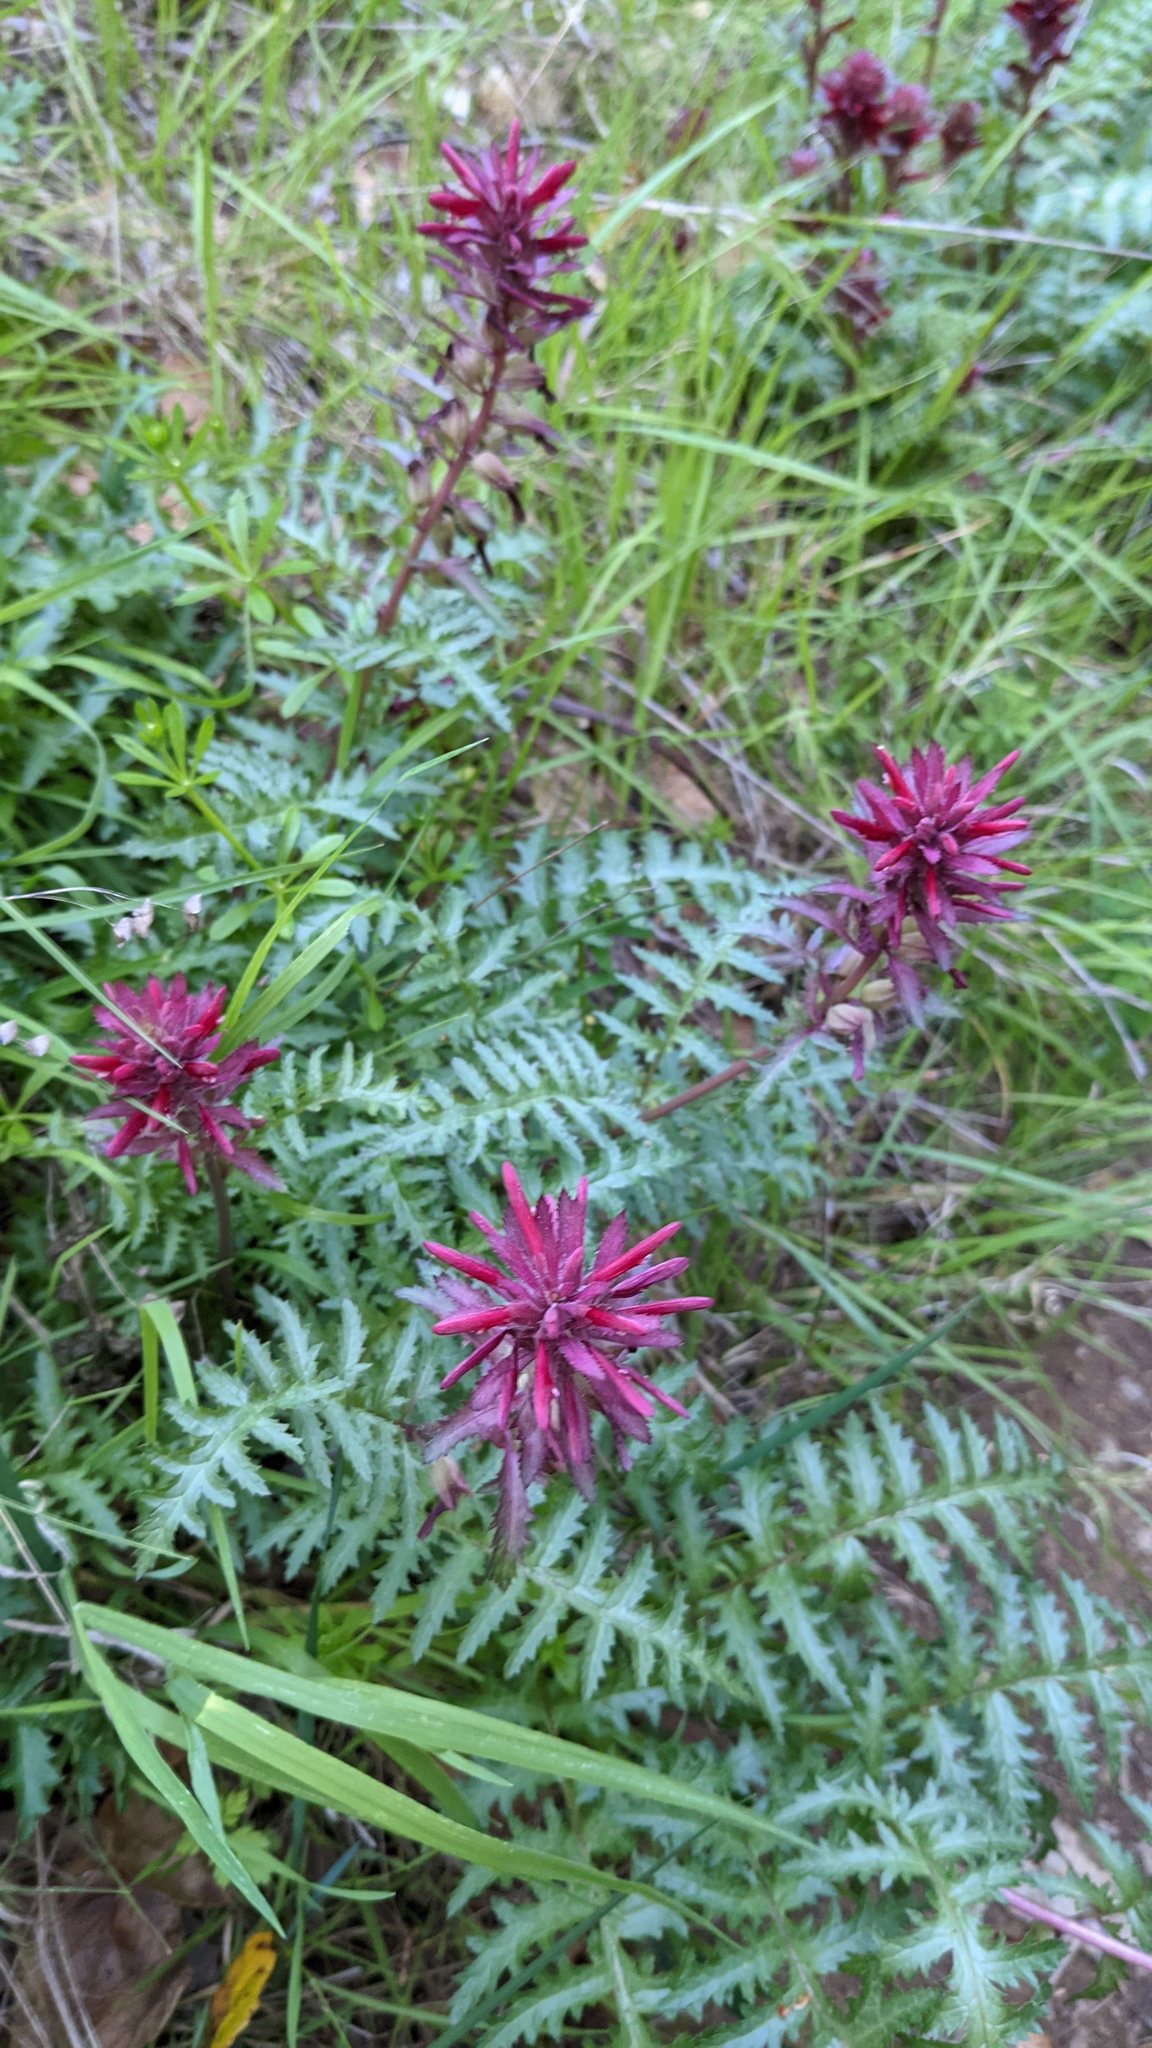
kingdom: Plantae
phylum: Tracheophyta
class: Magnoliopsida
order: Lamiales
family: Orobanchaceae
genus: Pedicularis
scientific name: Pedicularis densiflora
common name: Indian warrior
